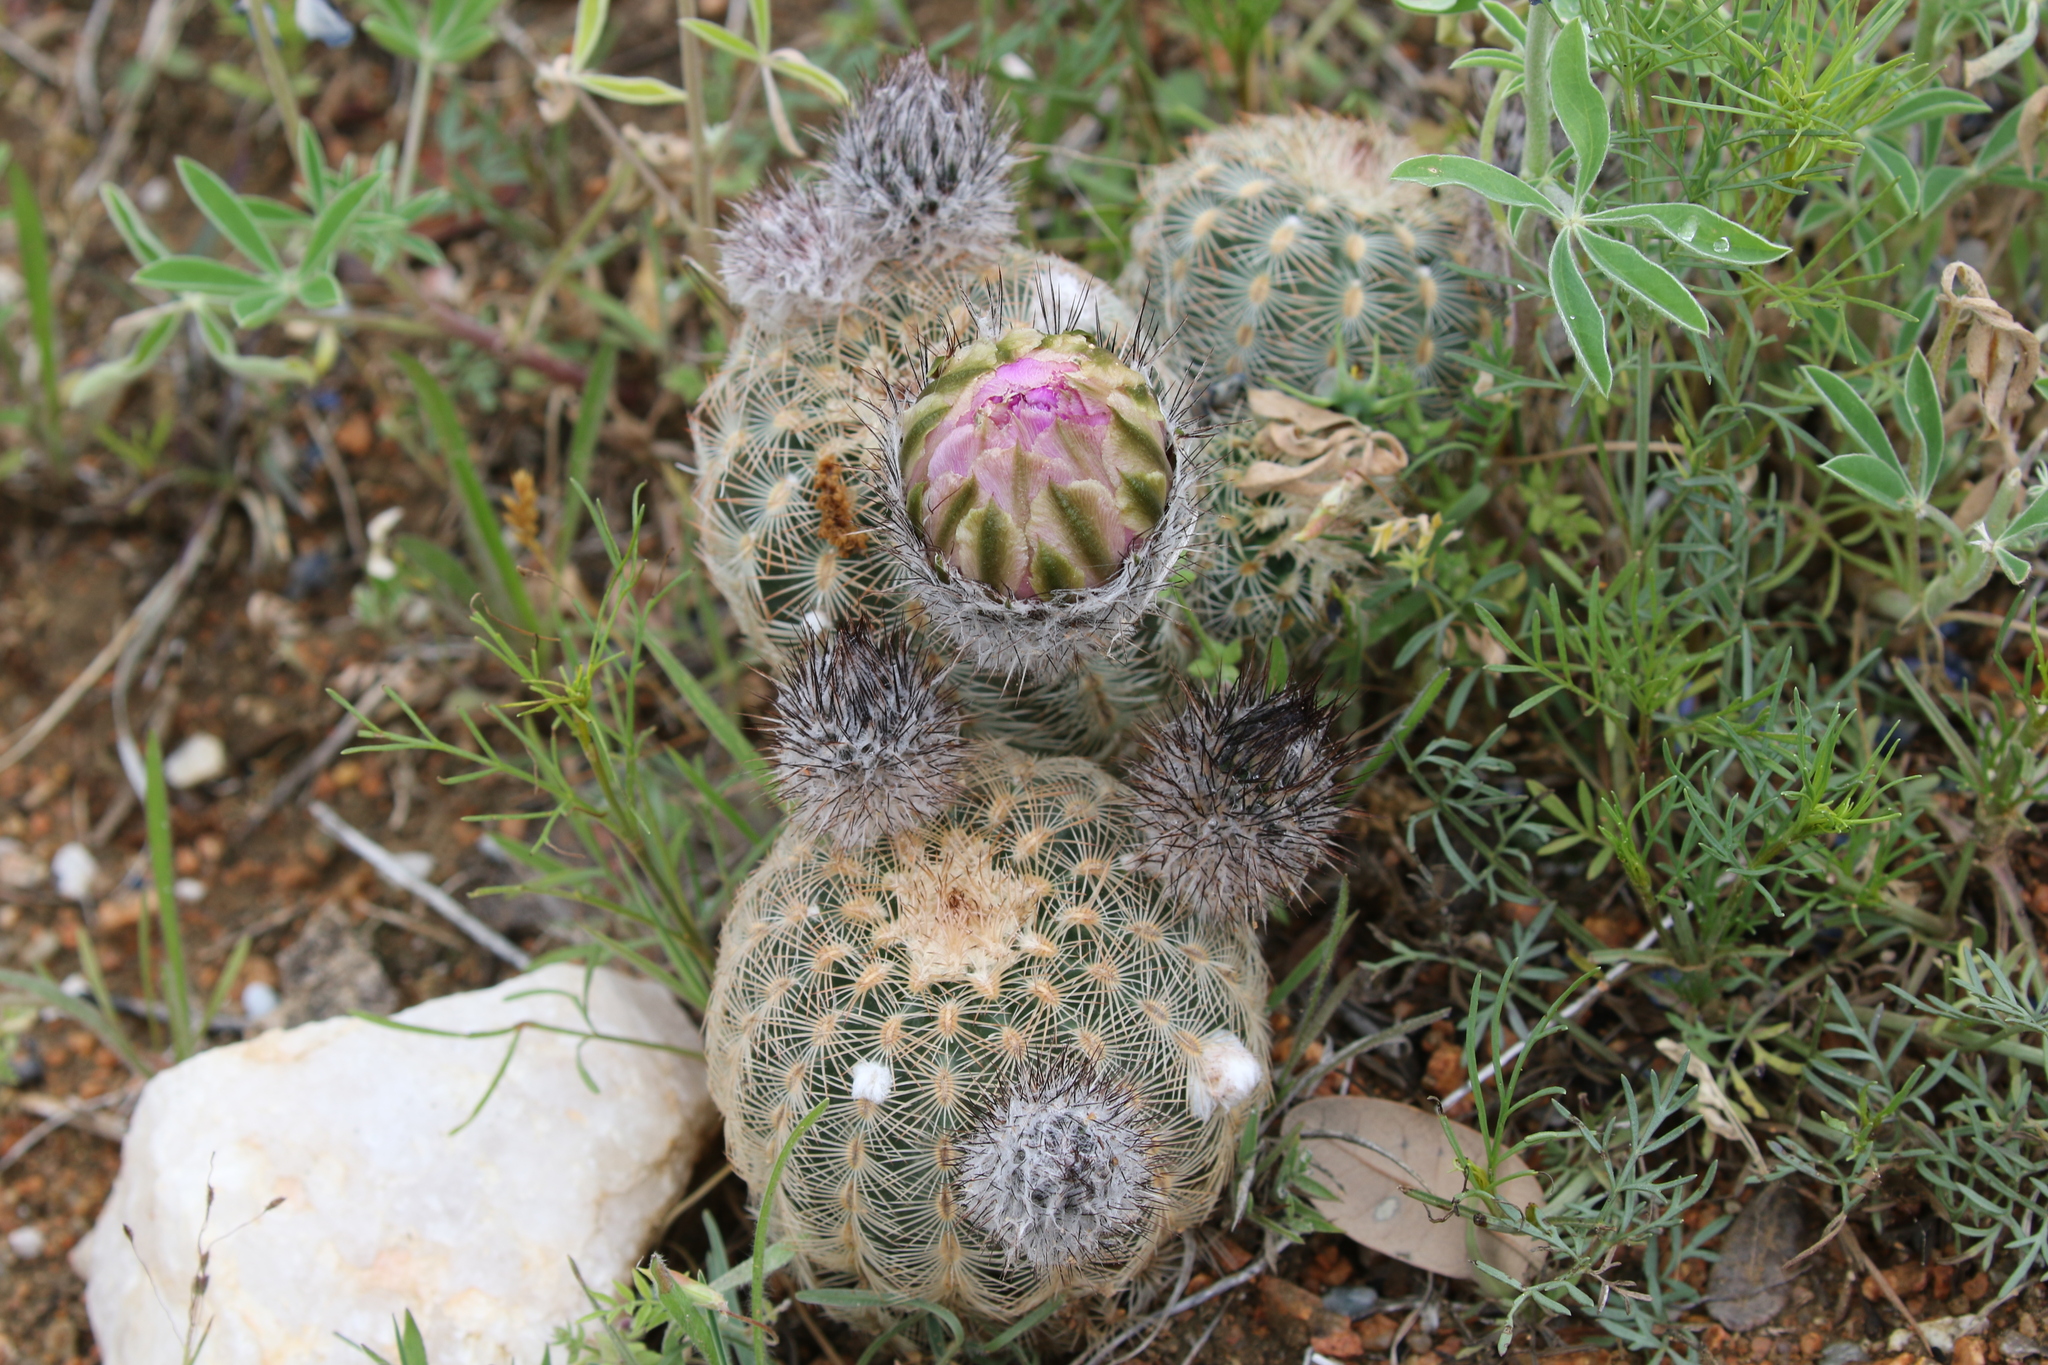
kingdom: Plantae
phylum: Tracheophyta
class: Magnoliopsida
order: Caryophyllales
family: Cactaceae
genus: Echinocereus
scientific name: Echinocereus reichenbachii
